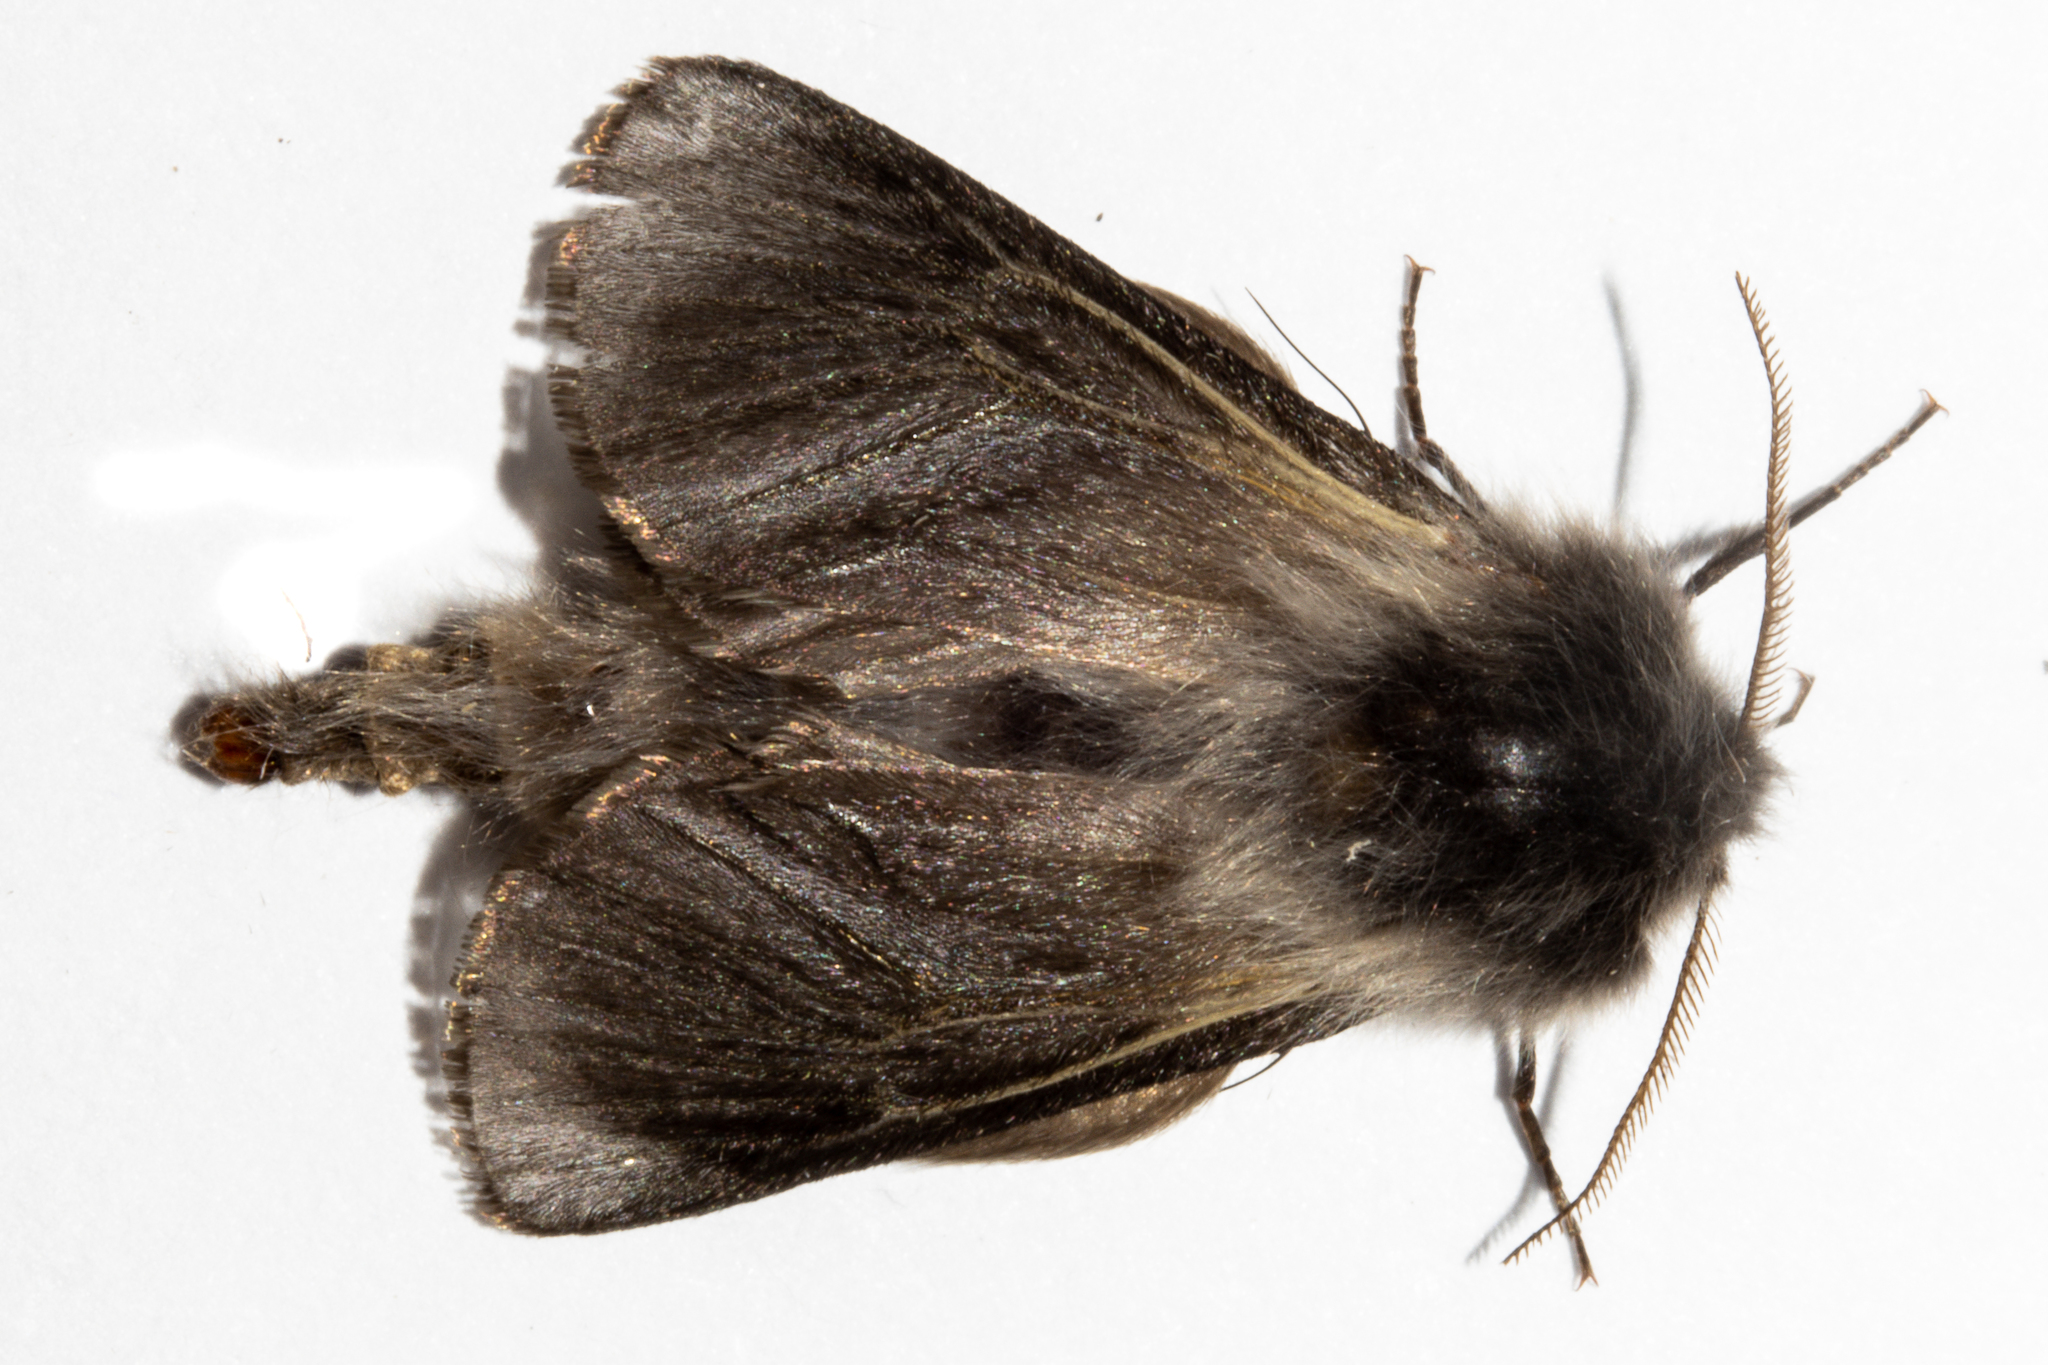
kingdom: Animalia
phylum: Arthropoda
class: Insecta
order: Lepidoptera
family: Psychidae
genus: Orophora
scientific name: Orophora unicolor
